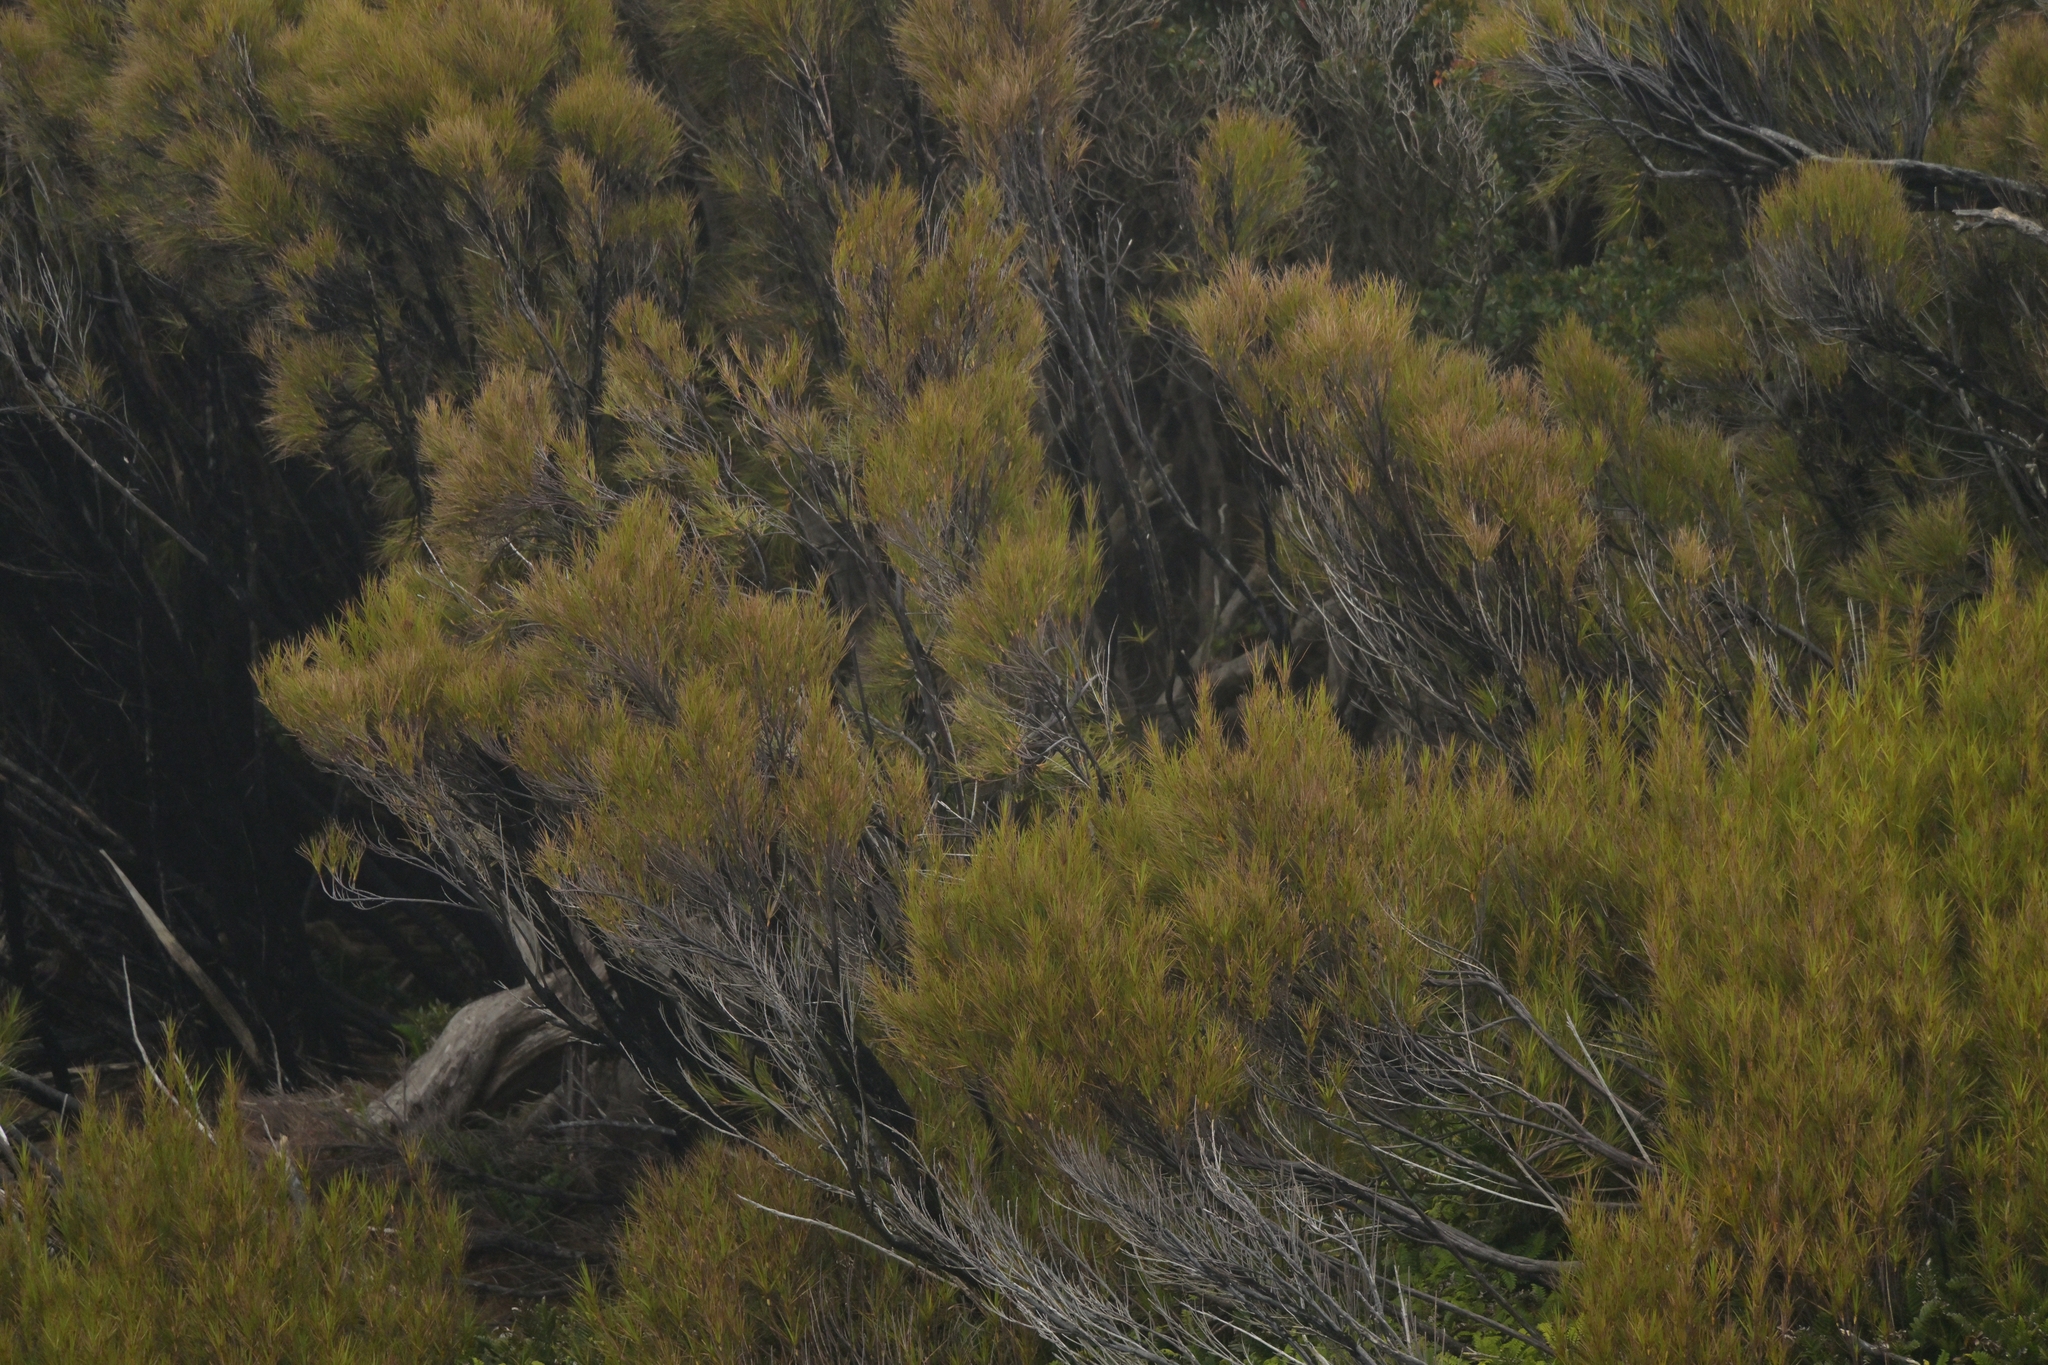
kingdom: Plantae
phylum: Tracheophyta
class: Magnoliopsida
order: Ericales
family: Ericaceae
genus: Dracophyllum
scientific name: Dracophyllum longifolium
